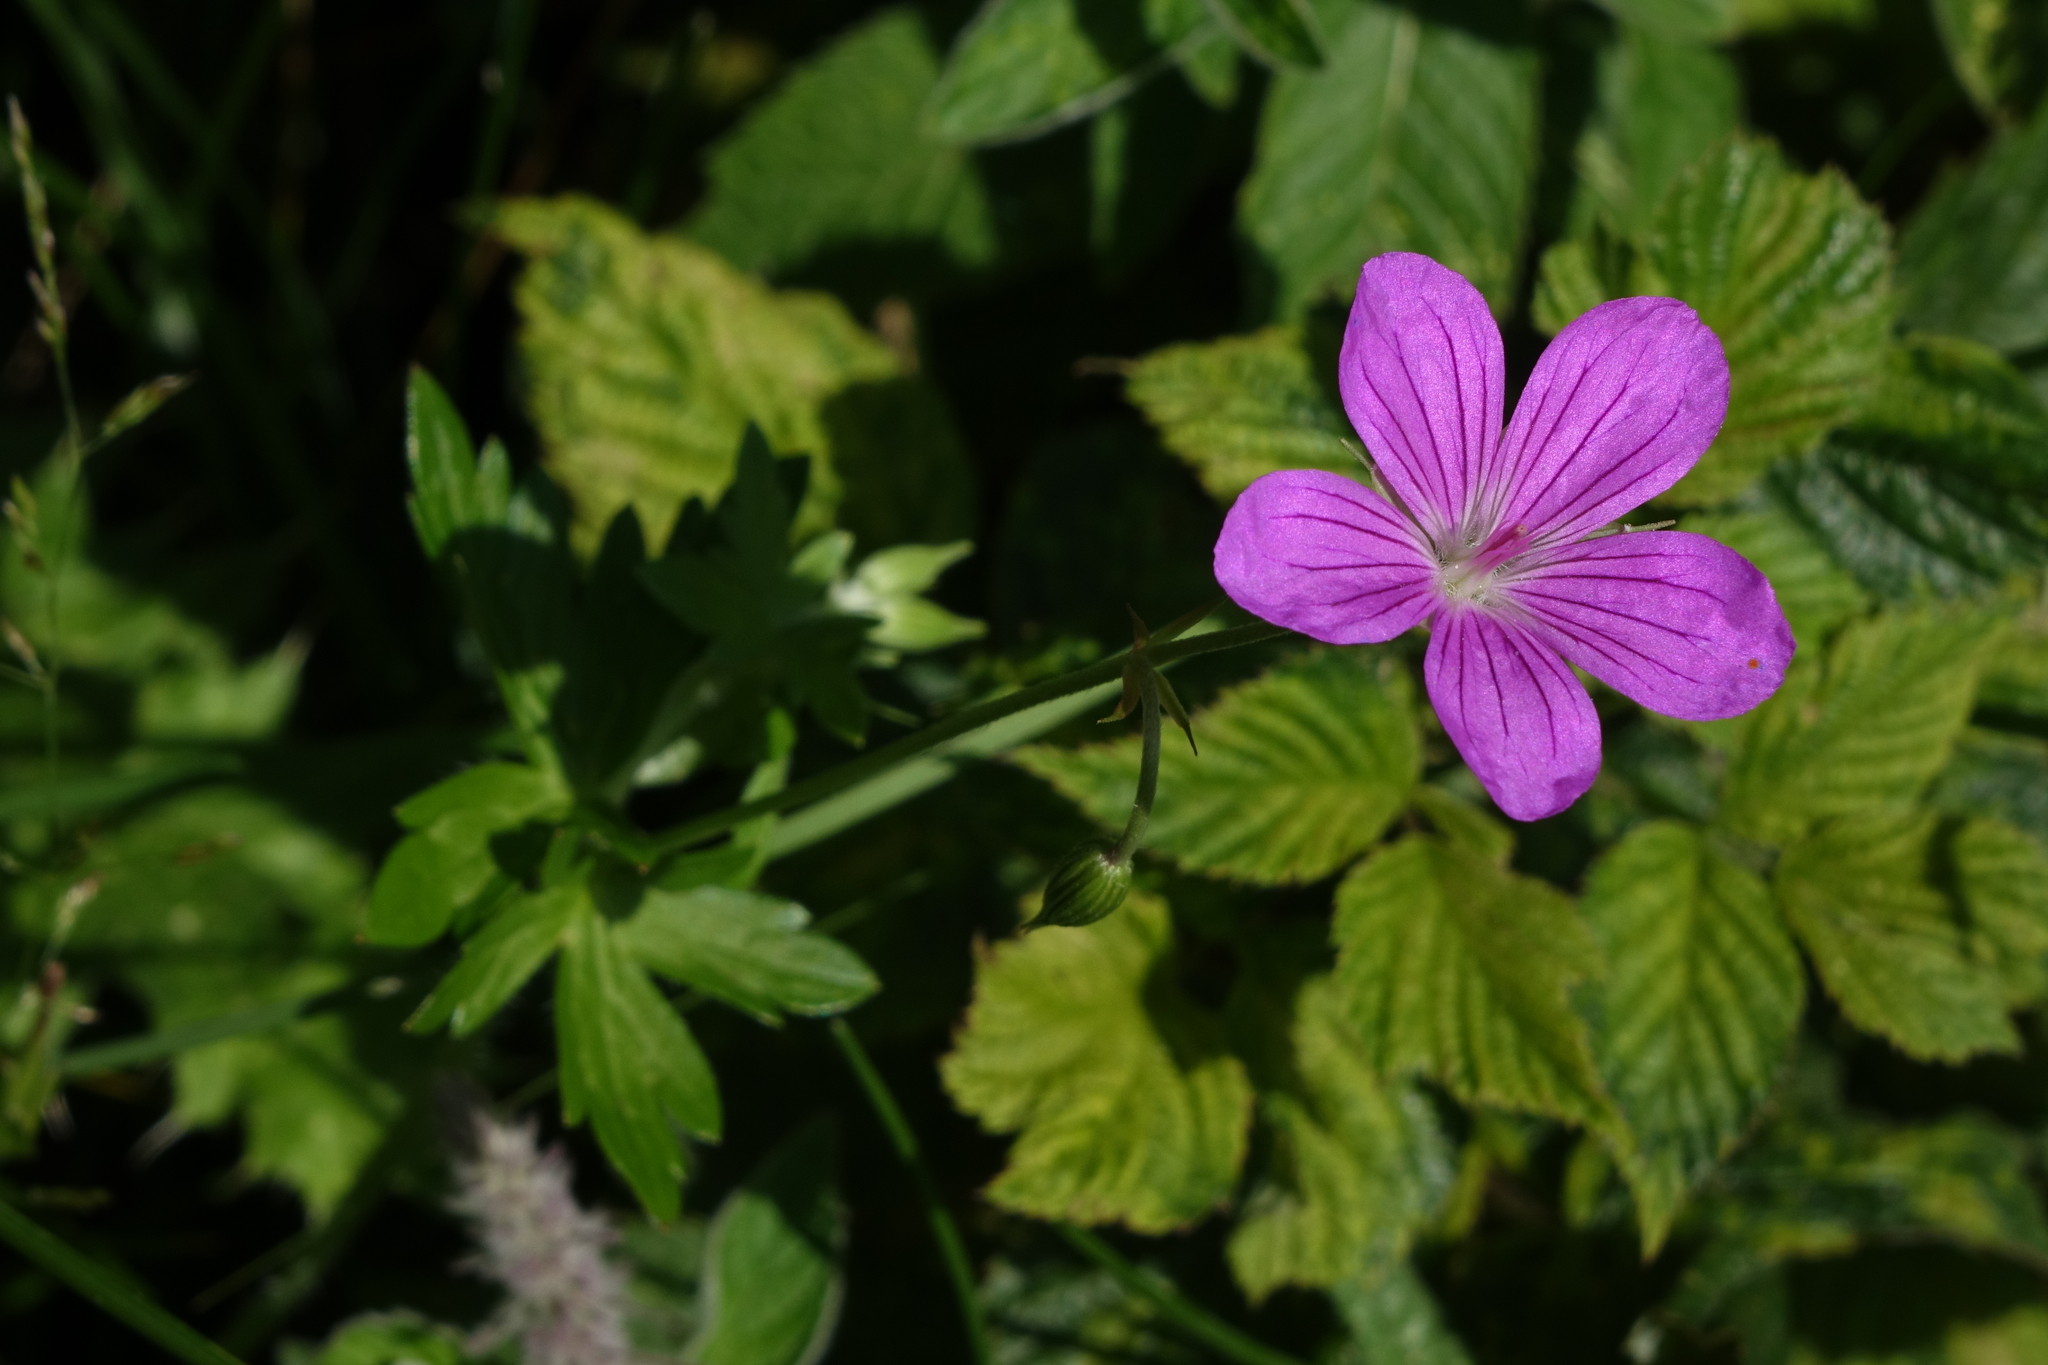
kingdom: Plantae
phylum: Tracheophyta
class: Magnoliopsida
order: Geraniales
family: Geraniaceae
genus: Geranium
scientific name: Geranium palustre
